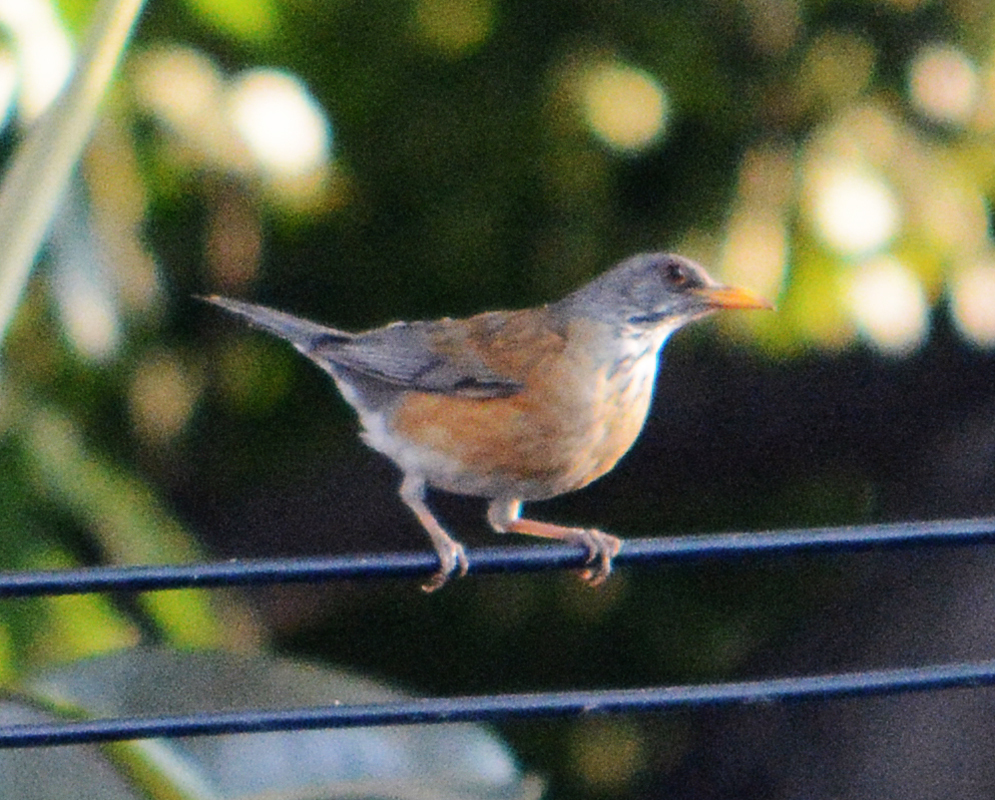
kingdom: Animalia
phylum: Chordata
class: Aves
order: Passeriformes
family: Turdidae
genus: Turdus
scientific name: Turdus rufopalliatus
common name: Rufous-backed robin
